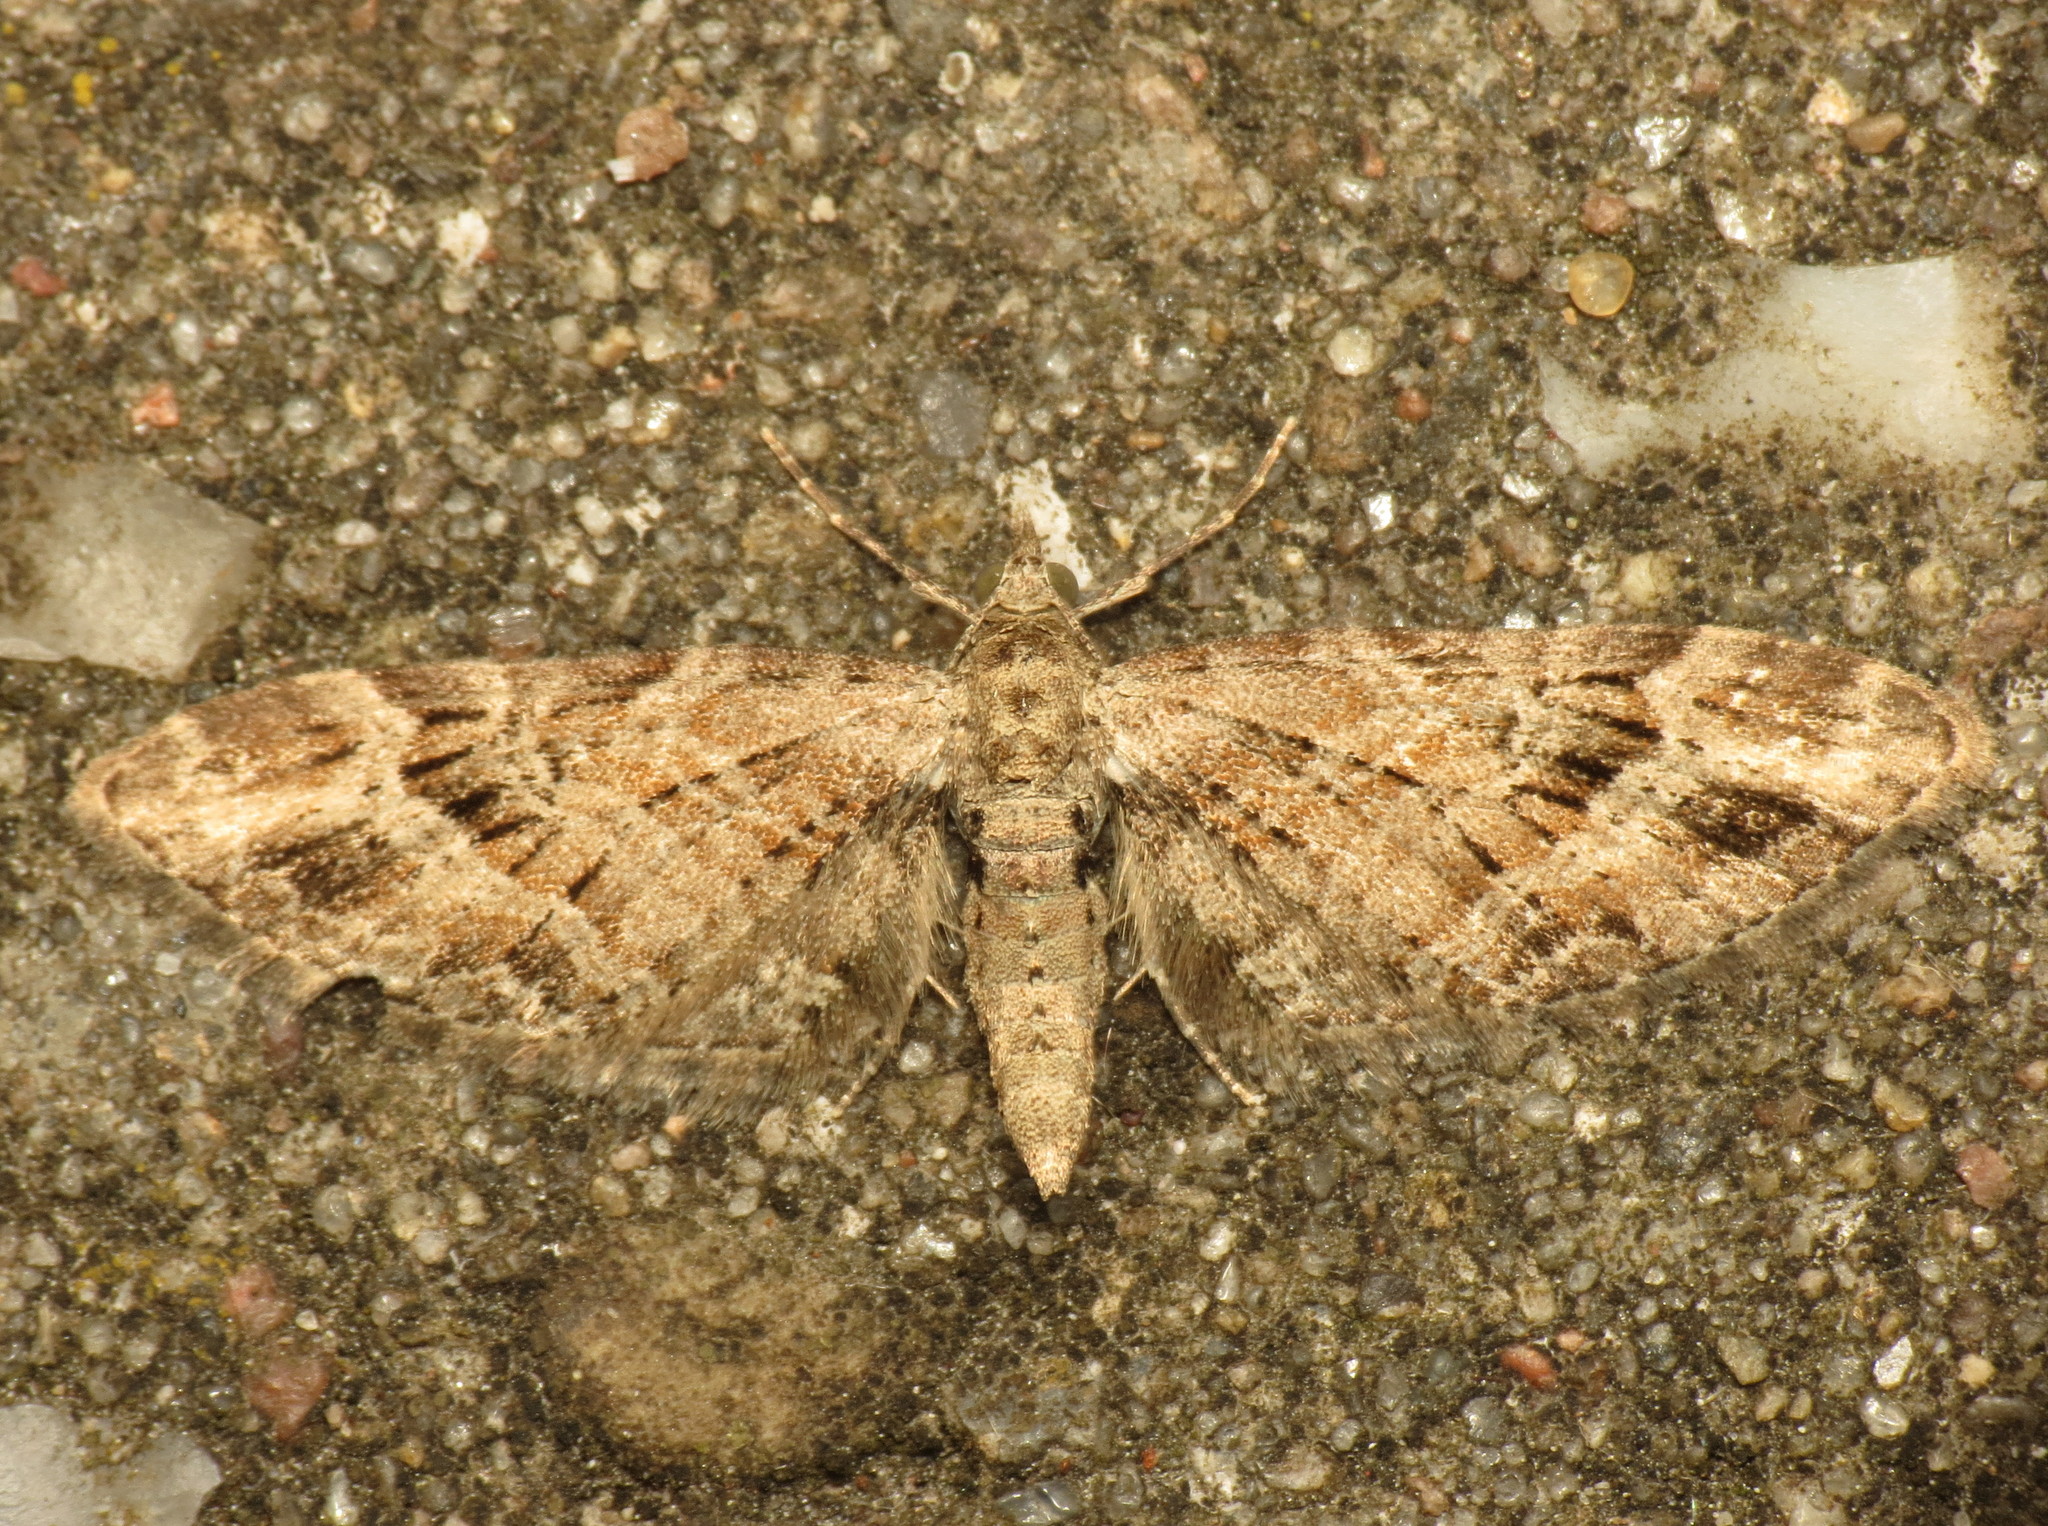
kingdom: Animalia
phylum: Arthropoda
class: Insecta
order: Lepidoptera
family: Geometridae
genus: Eupithecia
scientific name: Eupithecia exiguata
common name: Mottled pug
